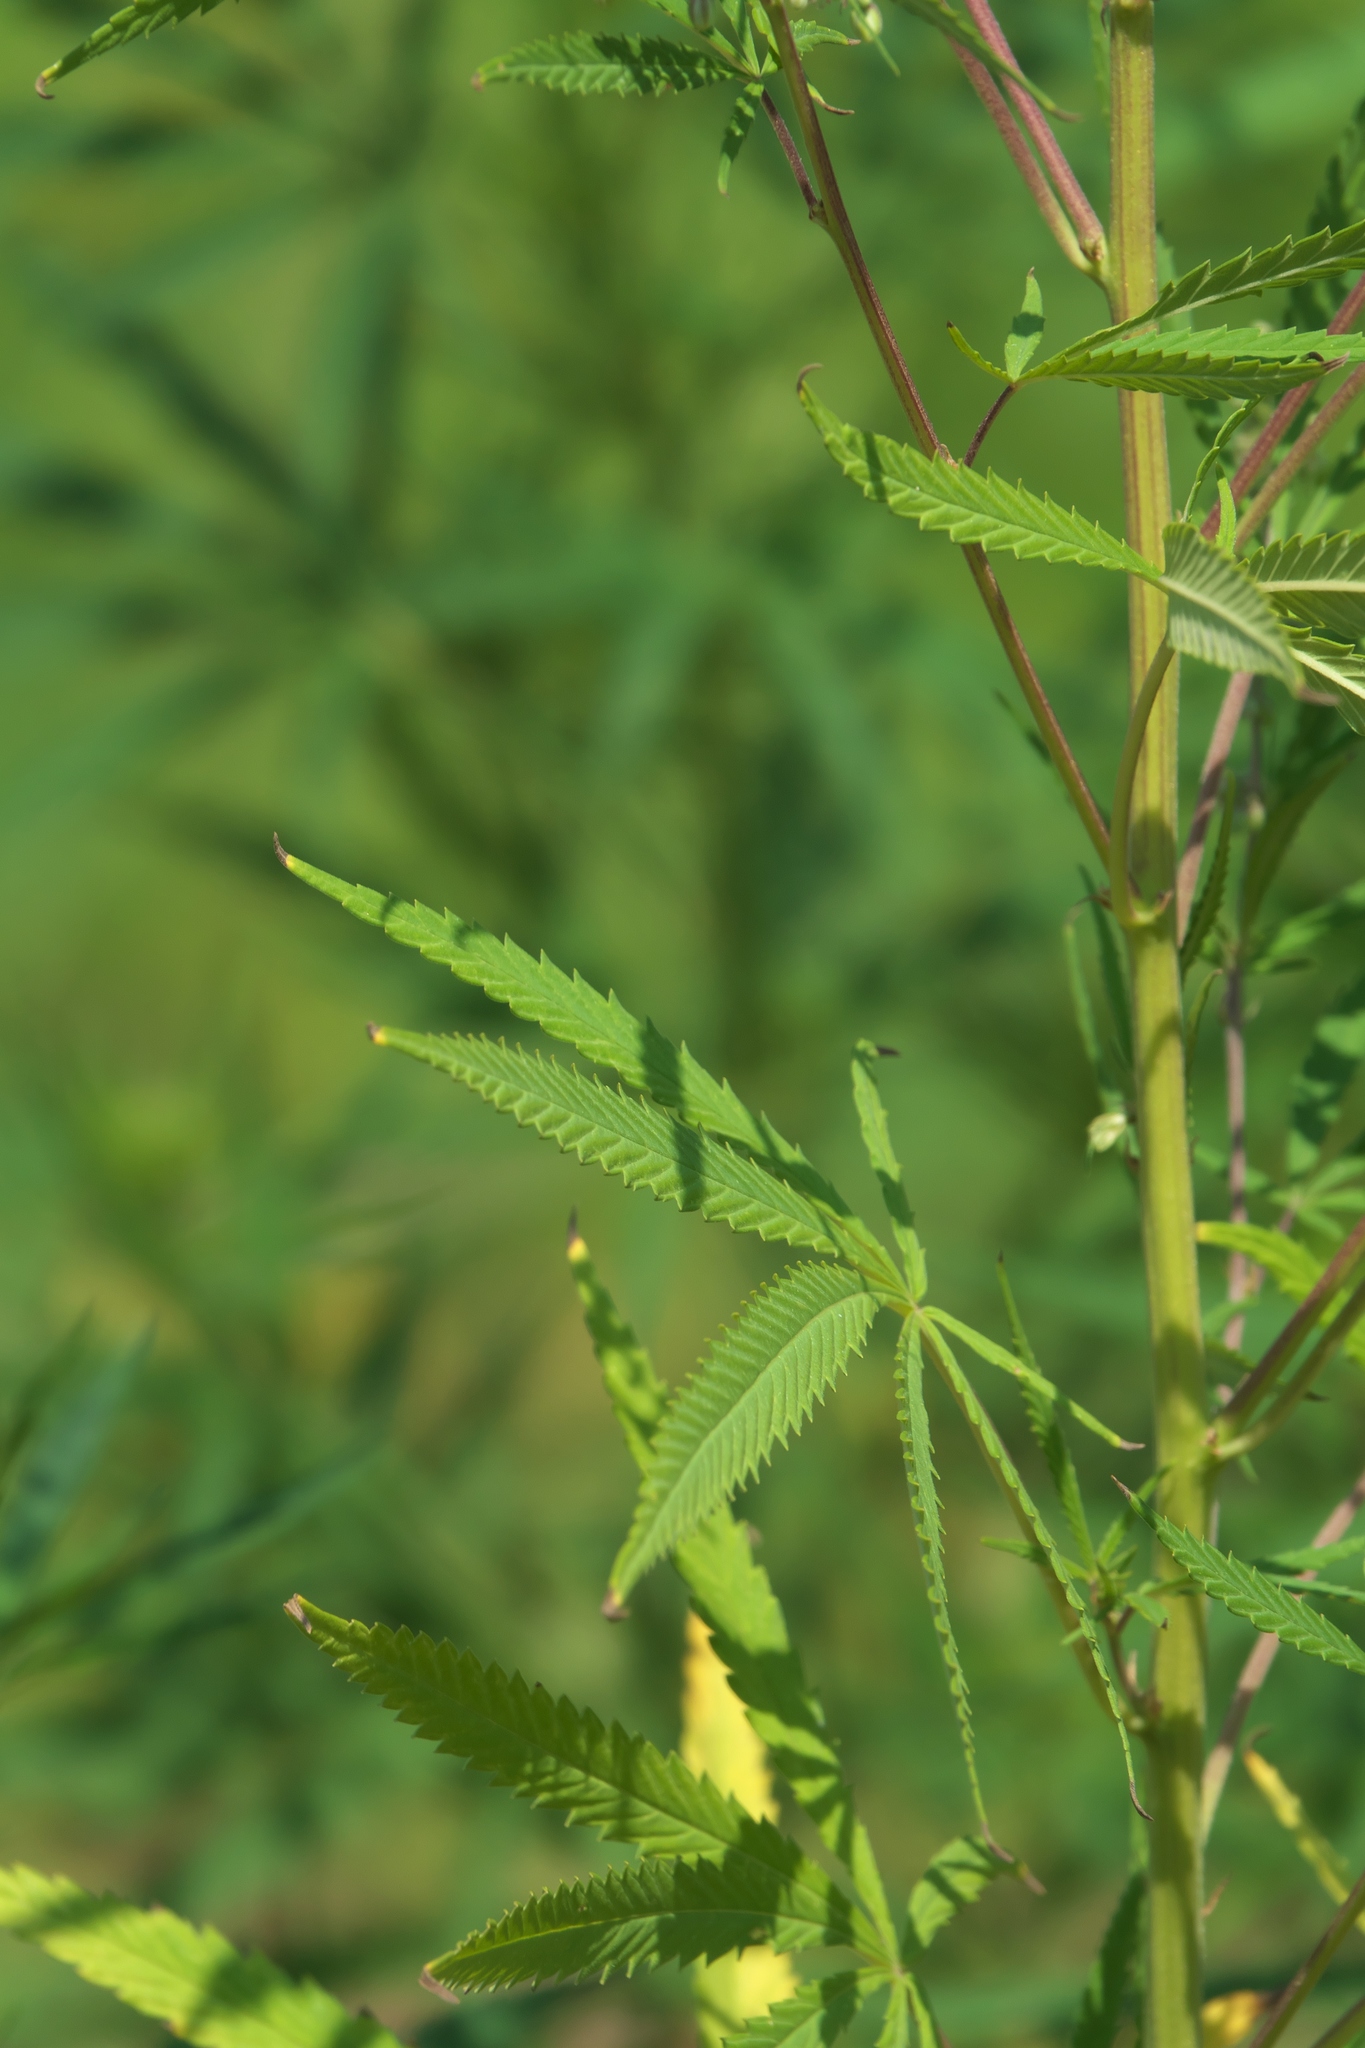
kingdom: Plantae
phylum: Tracheophyta
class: Magnoliopsida
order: Rosales
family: Cannabaceae
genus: Cannabis
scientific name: Cannabis sativa
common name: Hemp
